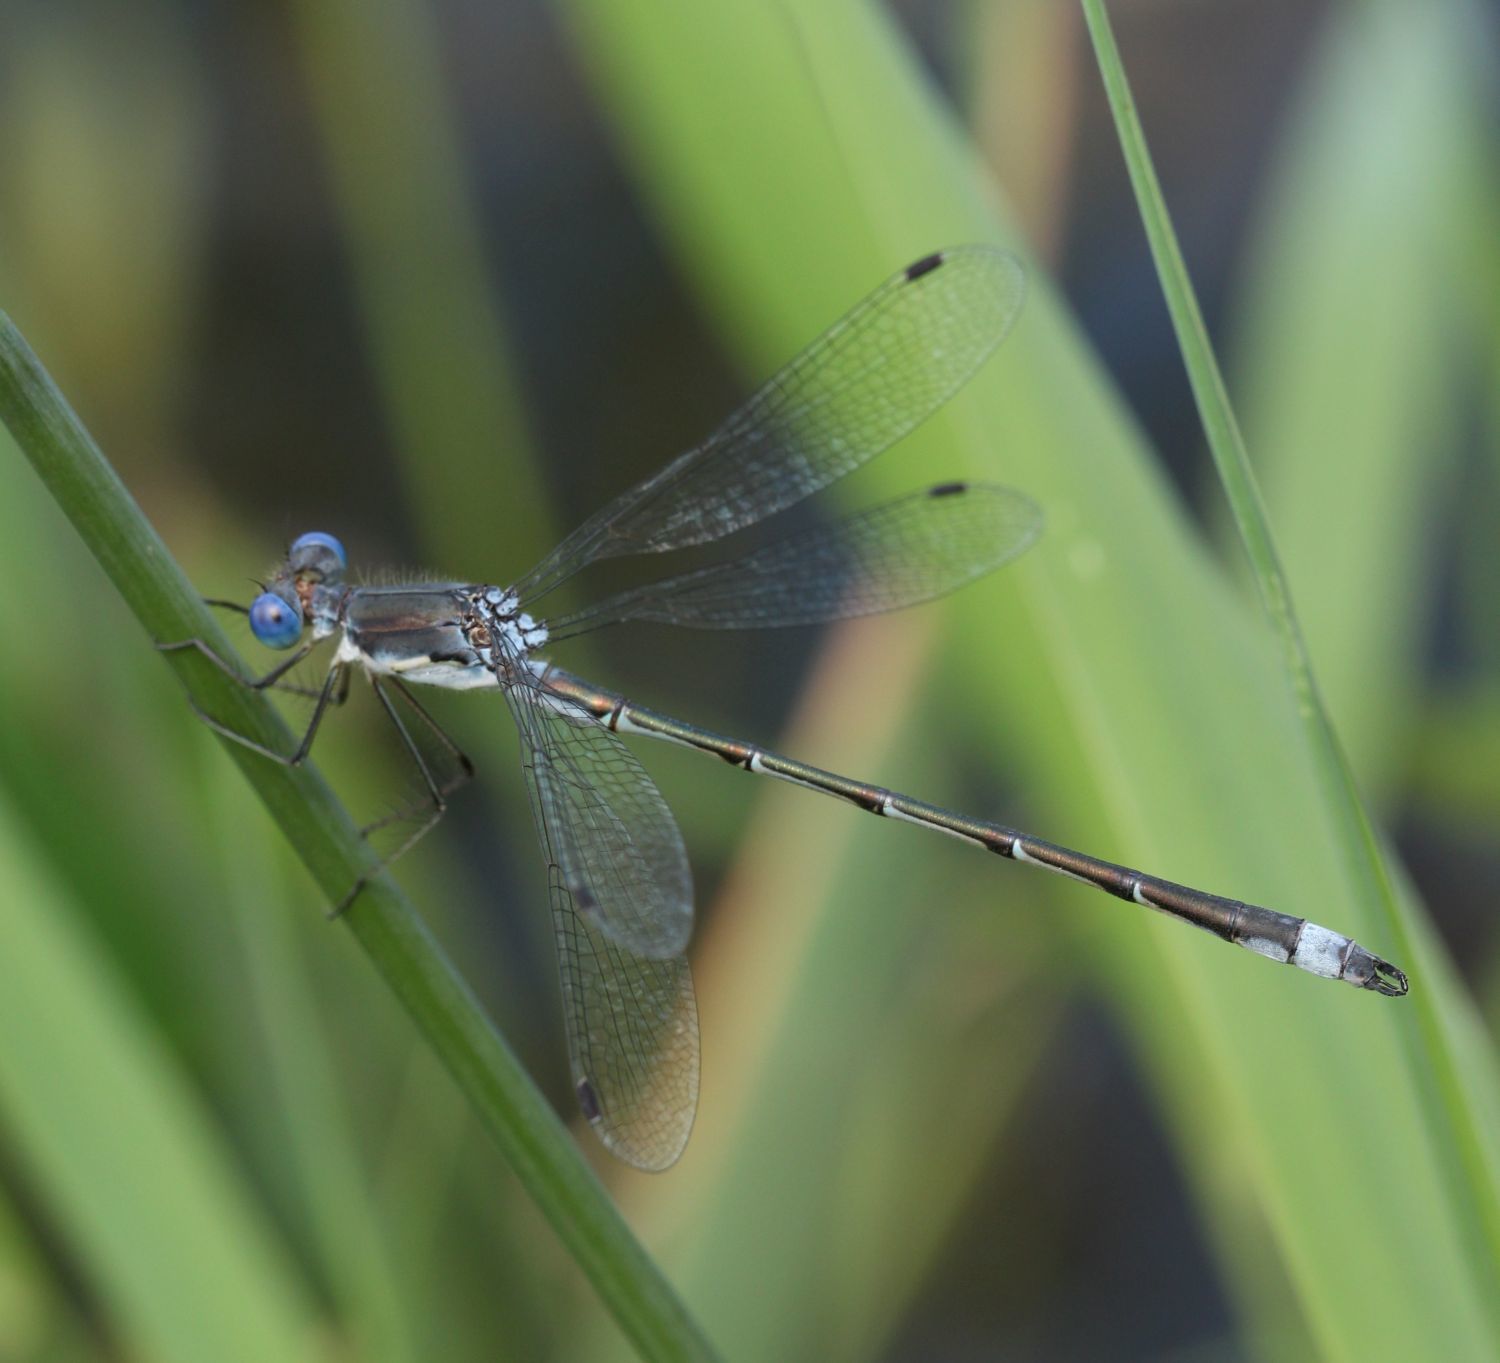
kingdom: Animalia
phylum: Arthropoda
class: Insecta
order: Odonata
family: Lestidae
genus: Lestes
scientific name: Lestes australis
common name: Southern spreadwing
